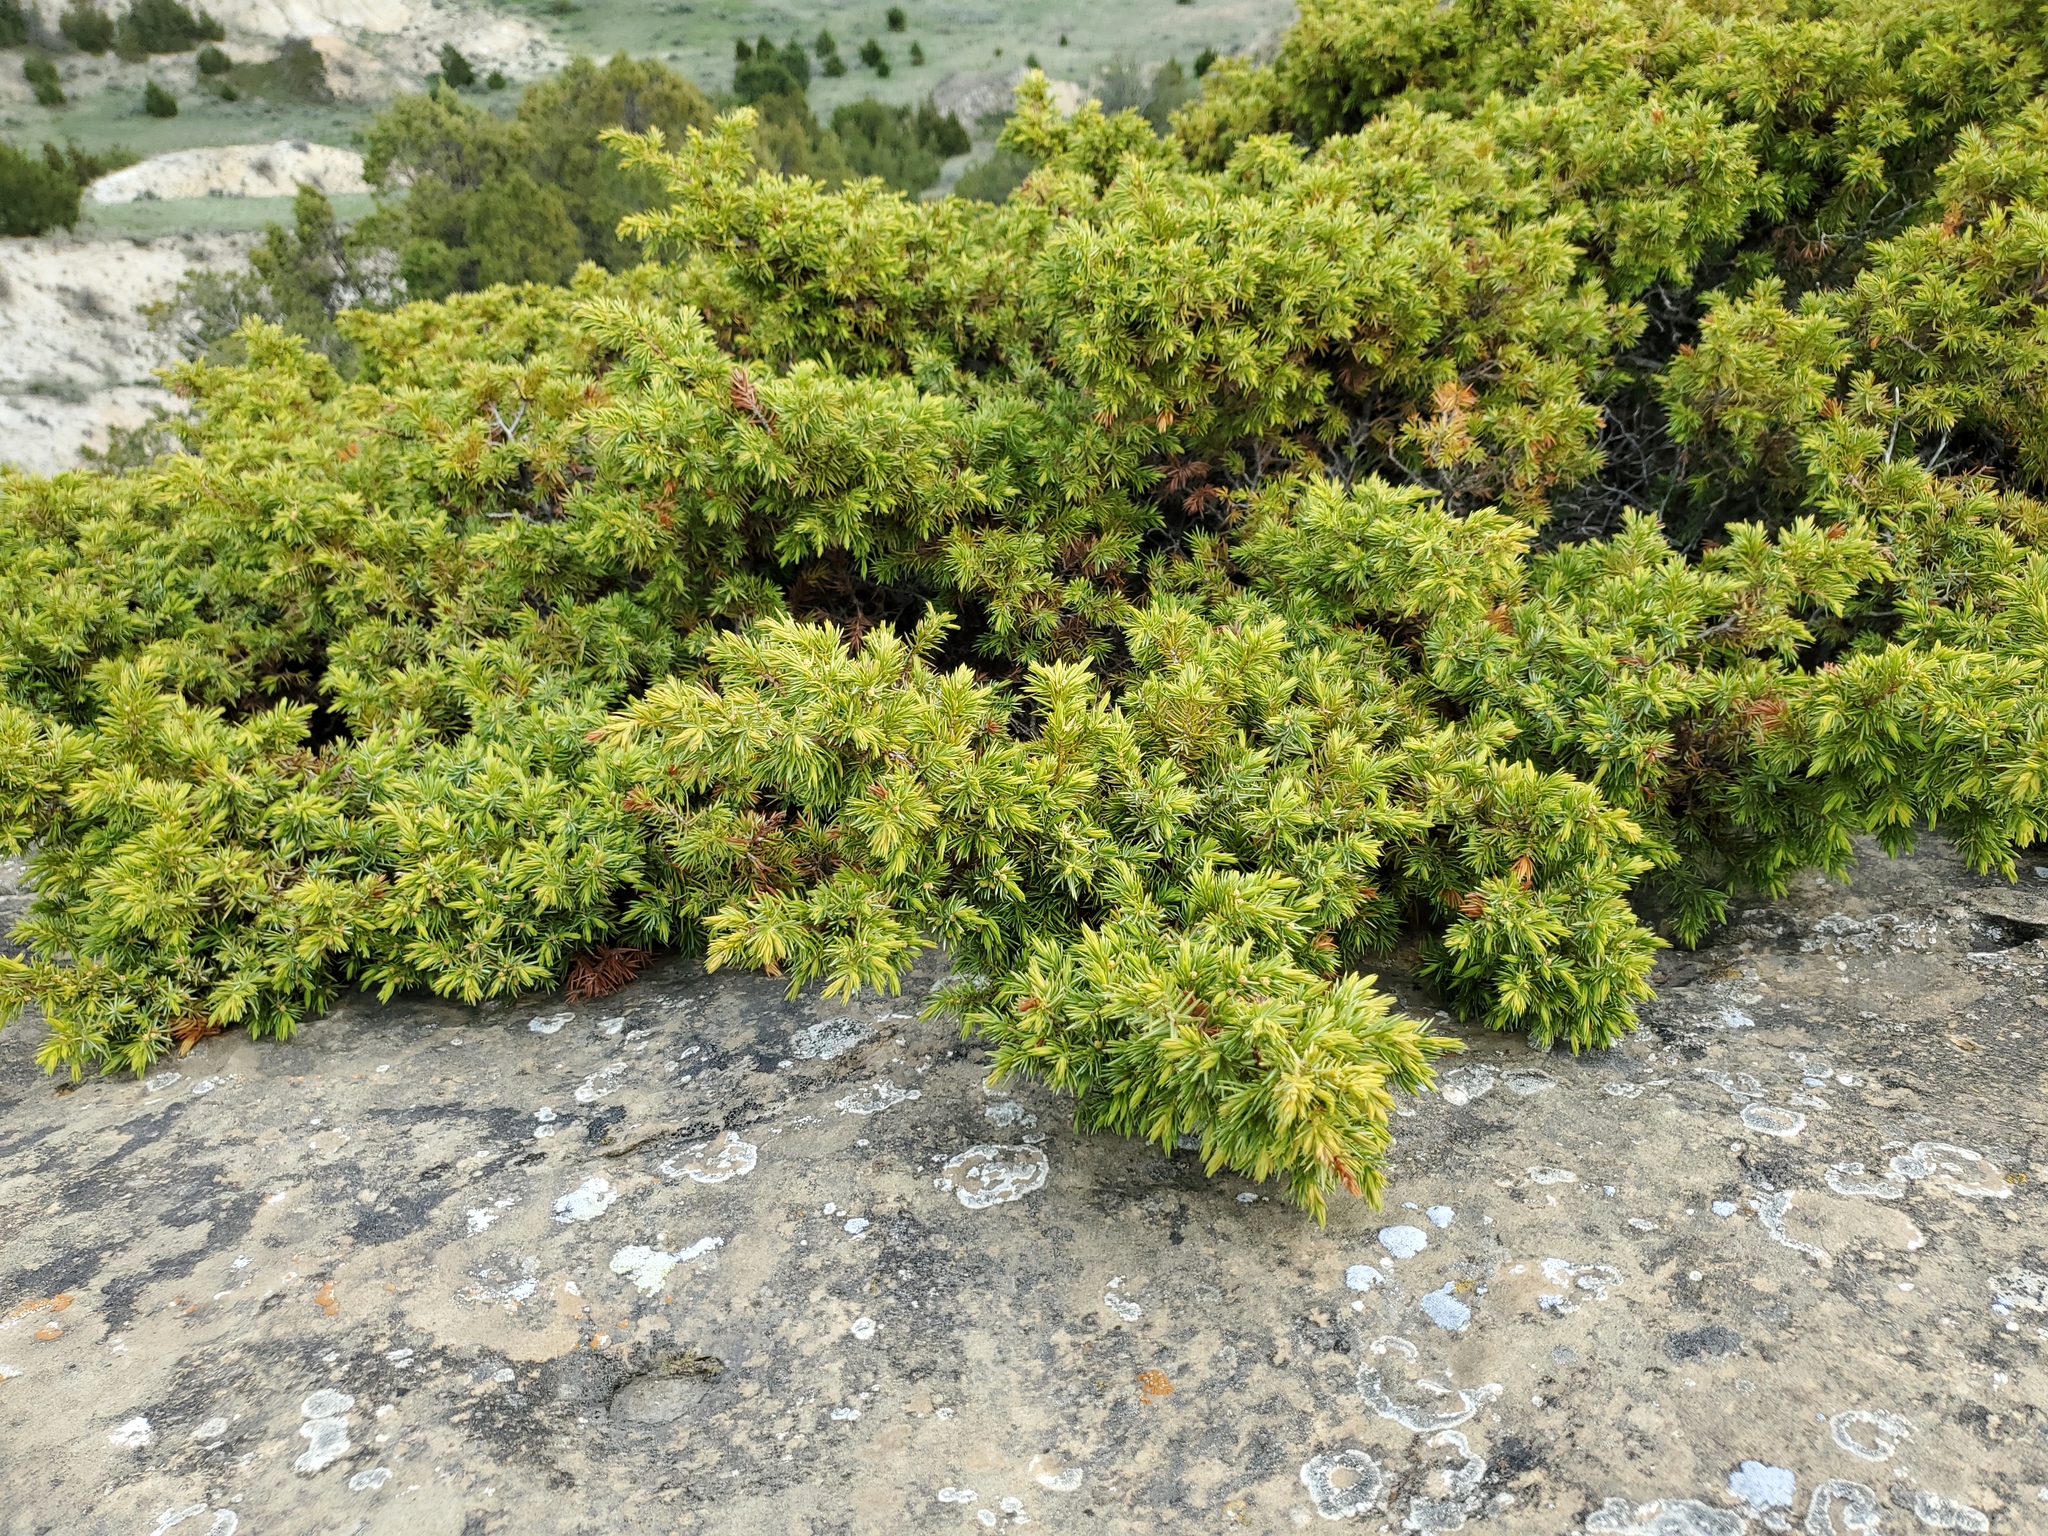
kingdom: Plantae
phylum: Tracheophyta
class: Pinopsida
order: Pinales
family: Cupressaceae
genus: Juniperus
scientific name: Juniperus communis
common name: Common juniper
